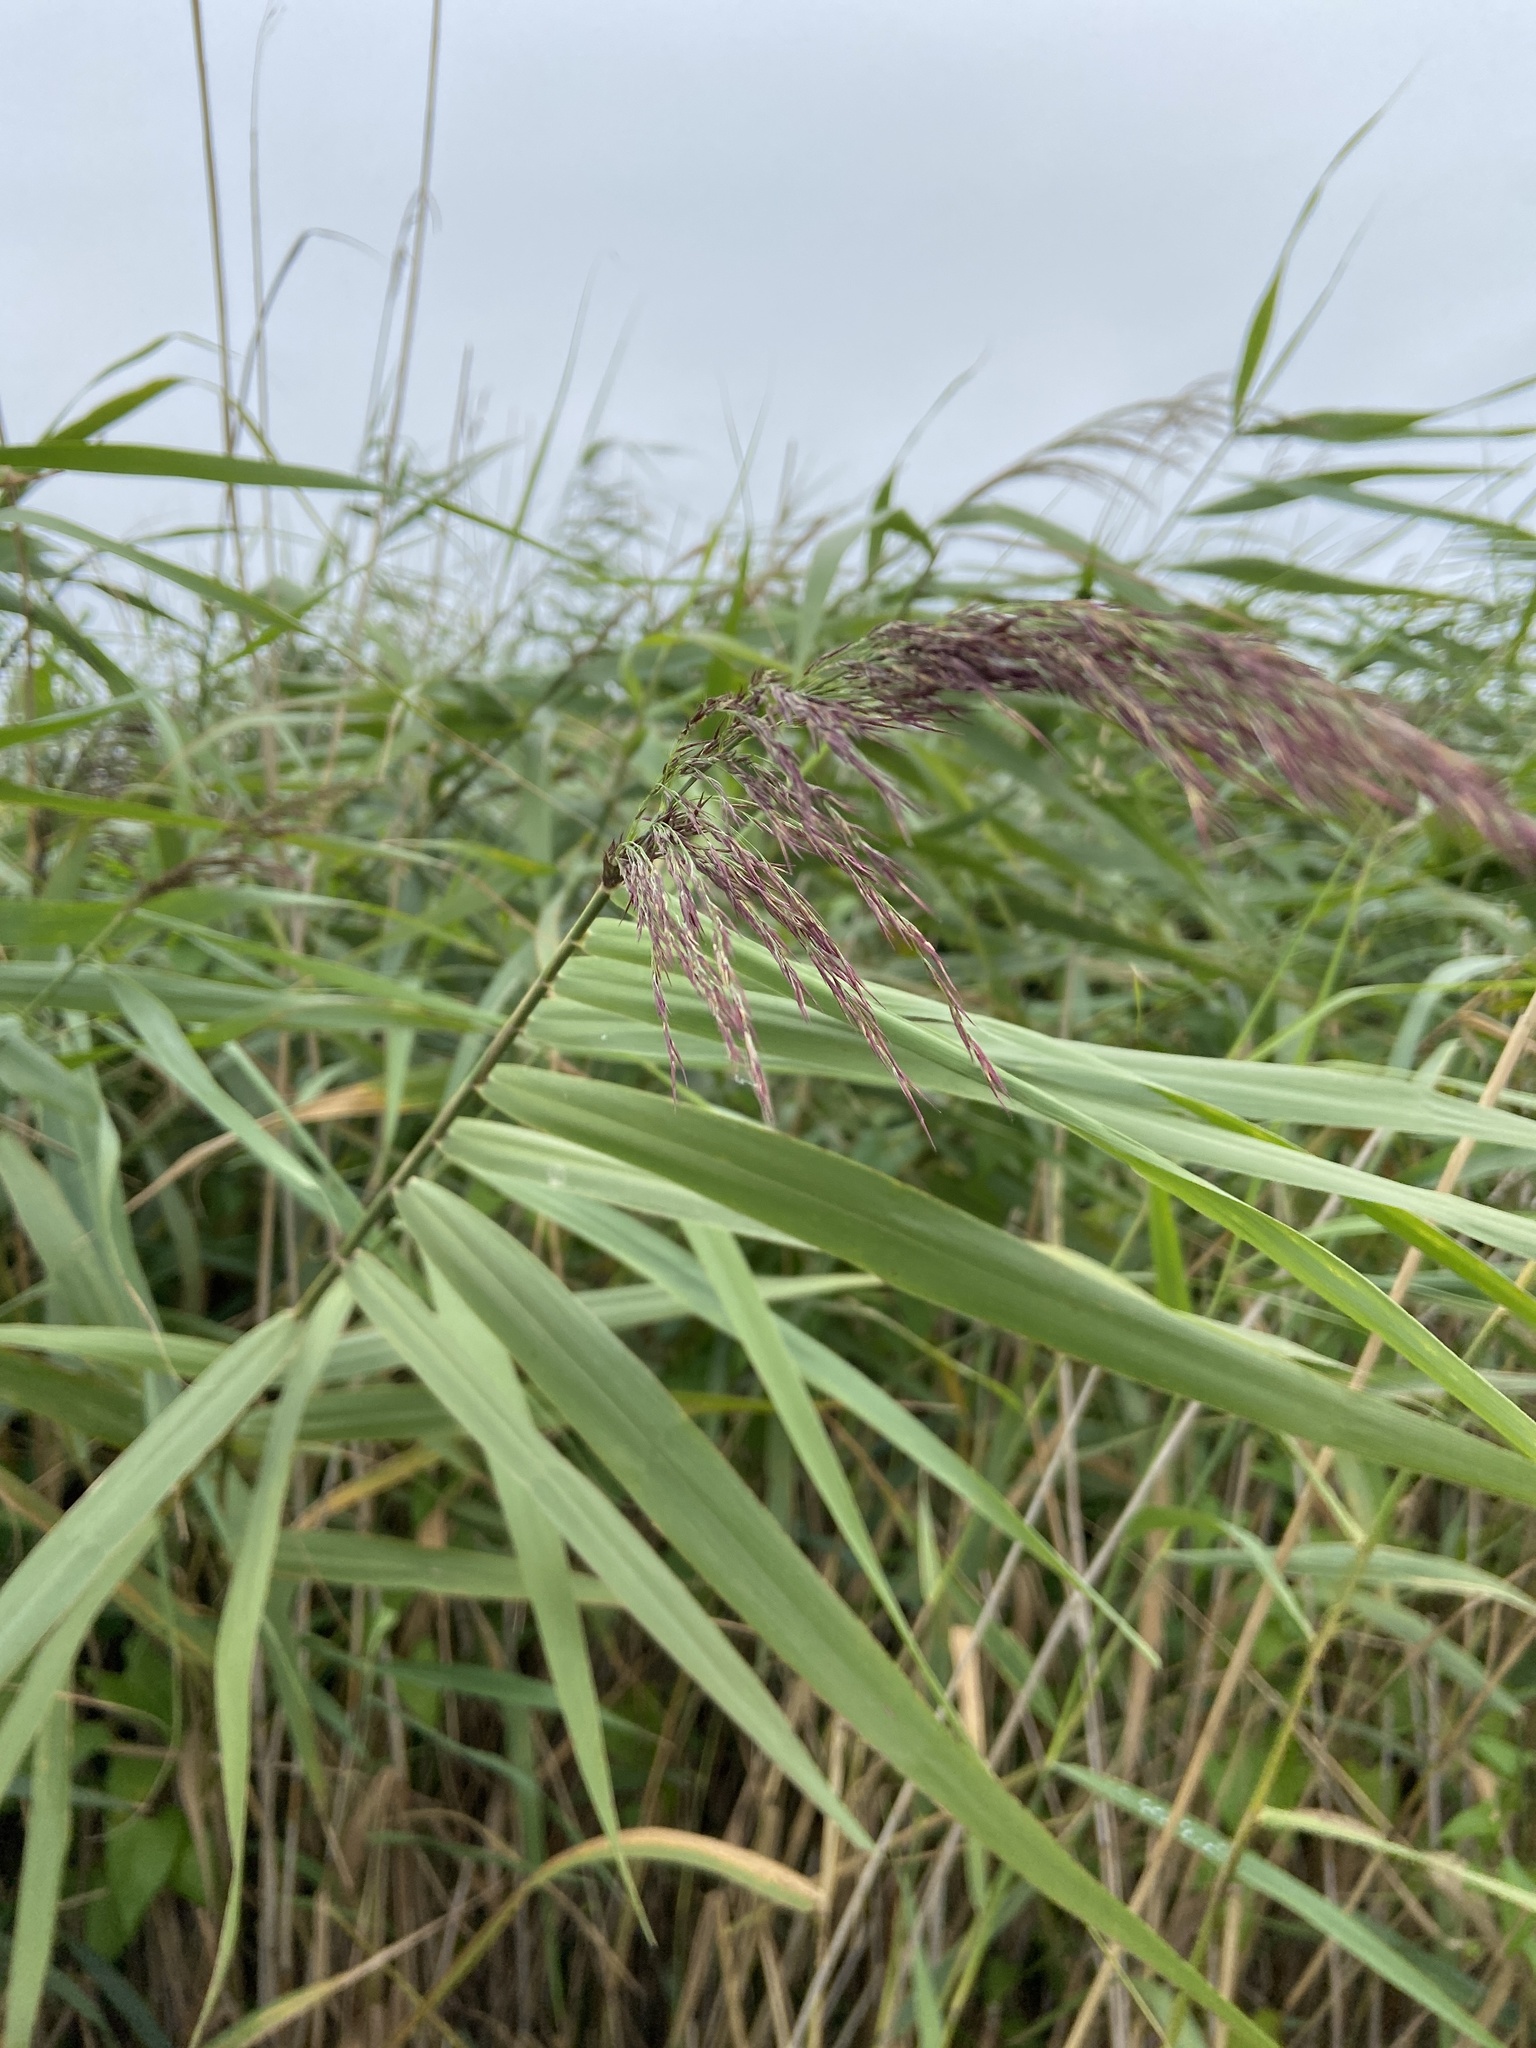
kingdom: Plantae
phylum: Tracheophyta
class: Liliopsida
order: Poales
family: Poaceae
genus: Phragmites
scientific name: Phragmites australis
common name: Common reed
